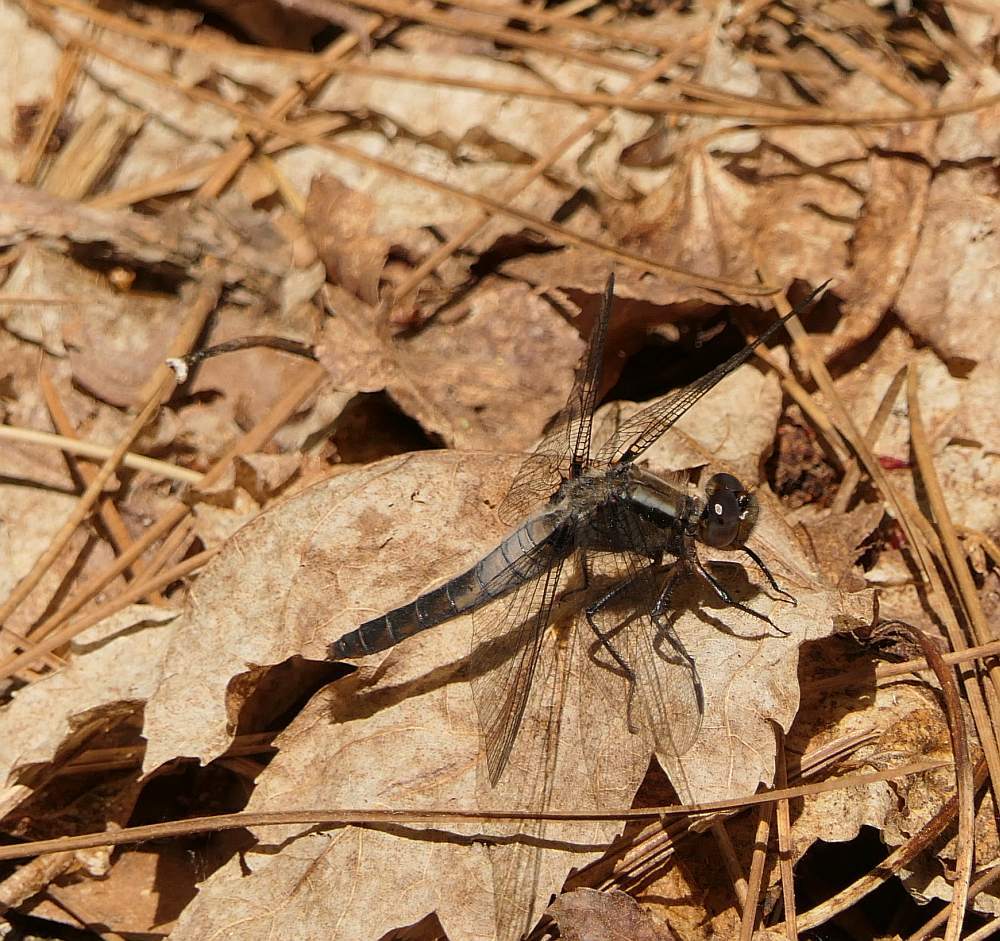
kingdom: Animalia
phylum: Arthropoda
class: Insecta
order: Odonata
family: Libellulidae
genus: Ladona
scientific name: Ladona julia
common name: Chalk-fronted corporal
